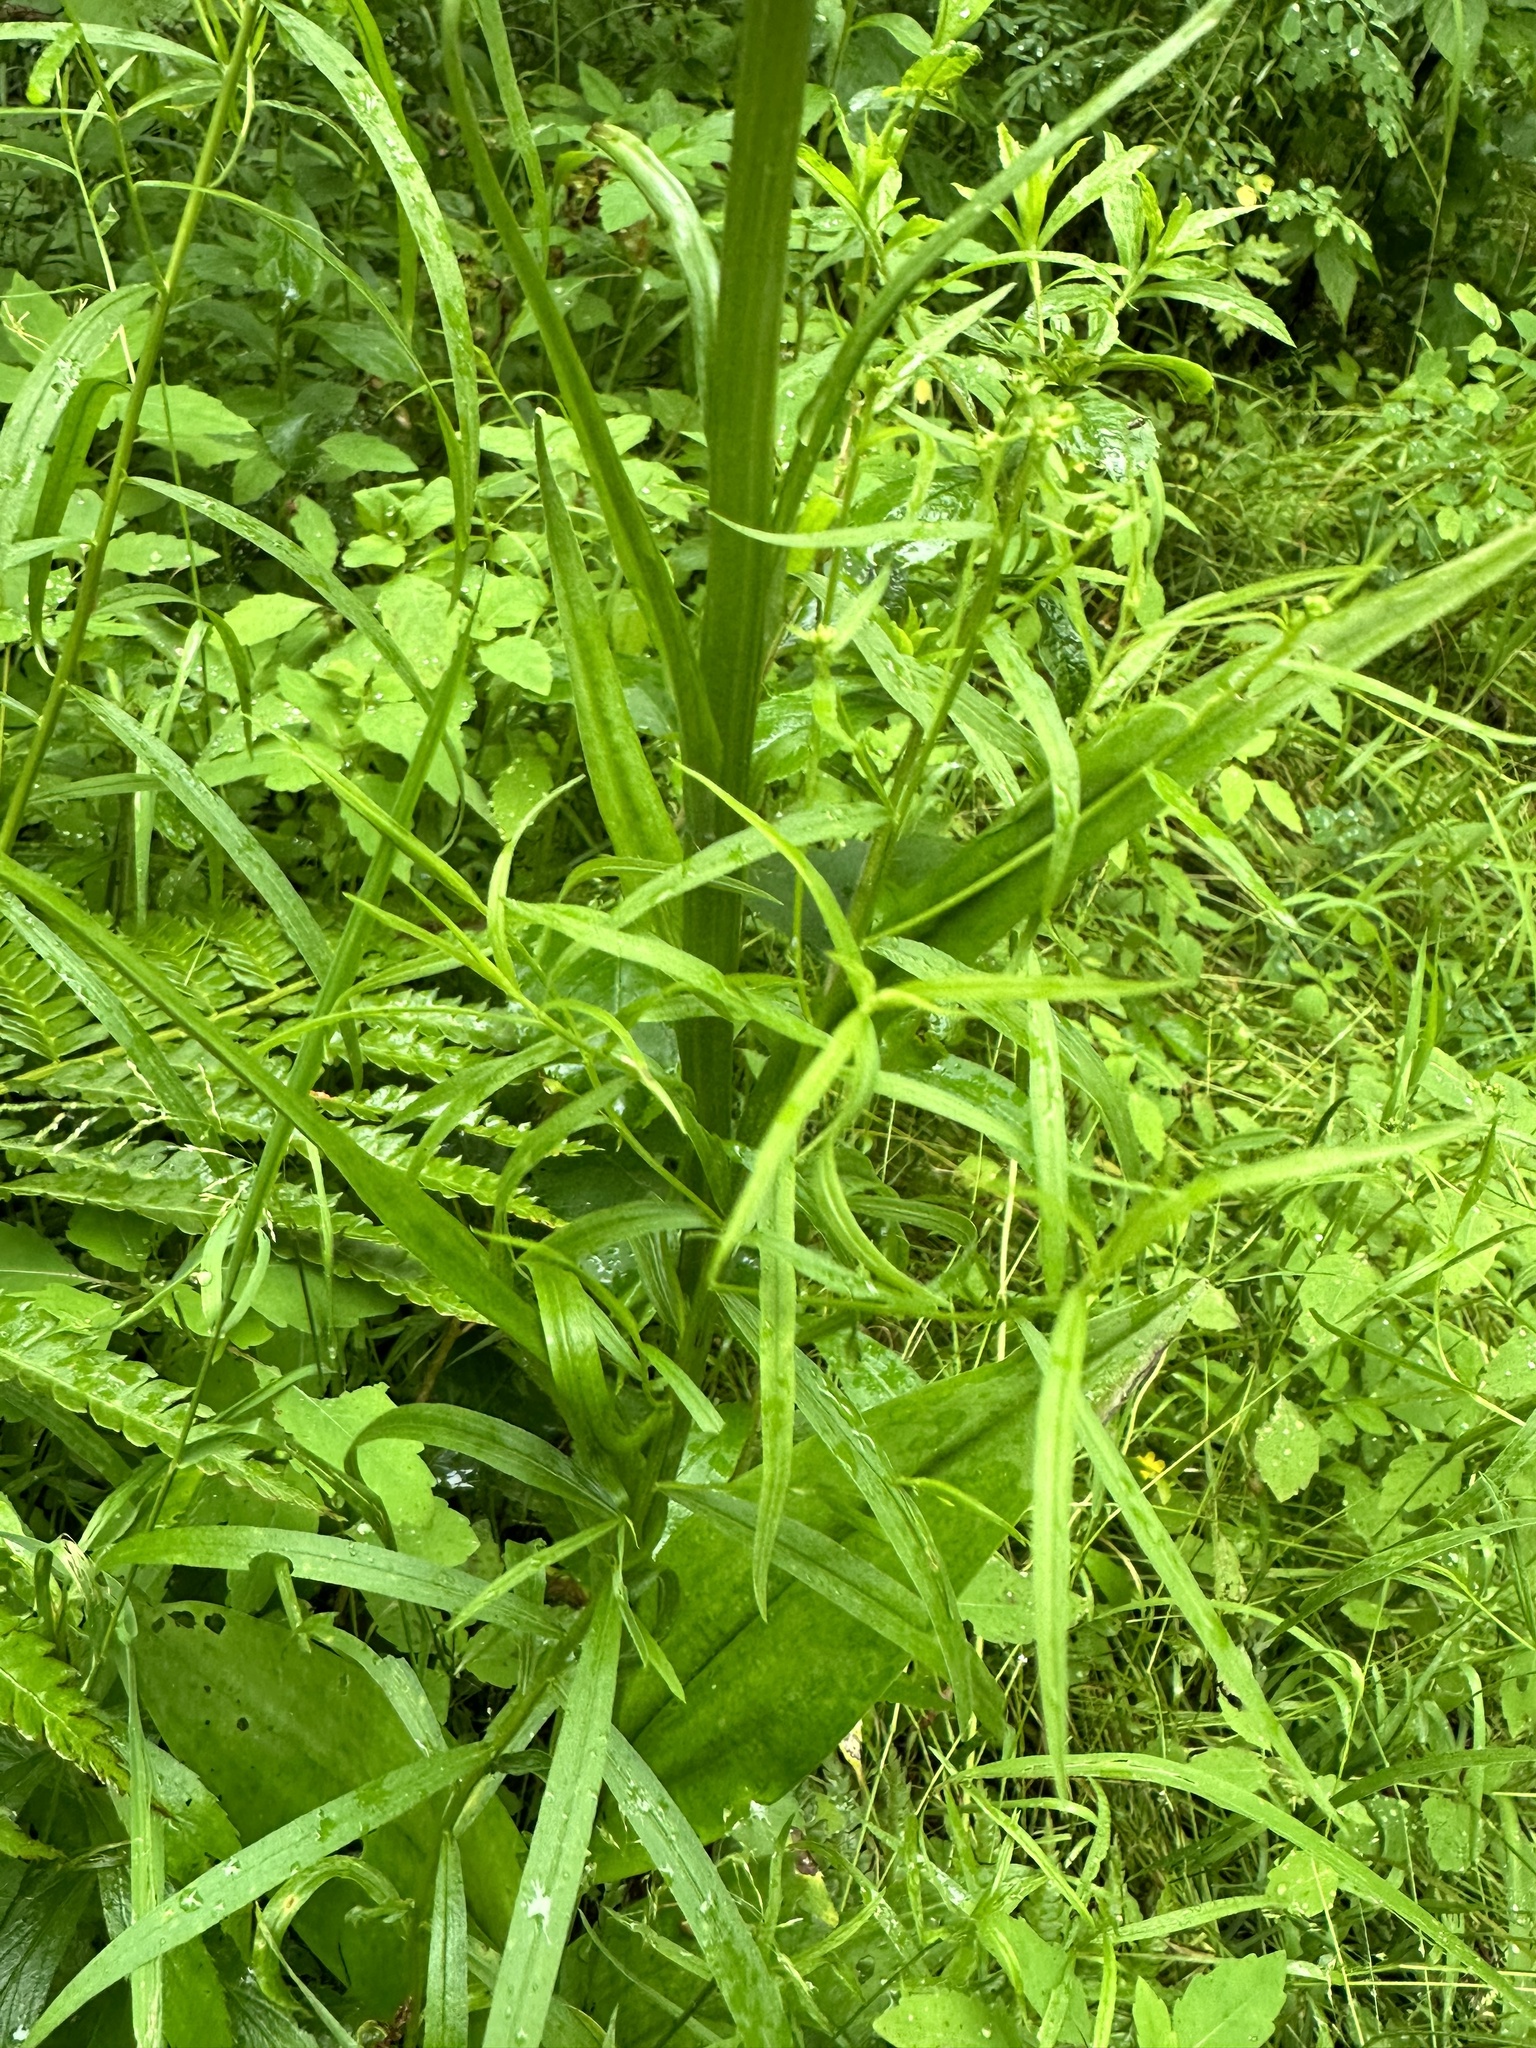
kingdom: Plantae
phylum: Tracheophyta
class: Liliopsida
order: Asparagales
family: Orchidaceae
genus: Platanthera
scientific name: Platanthera psycodes
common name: Lesser purple fringed orchid
